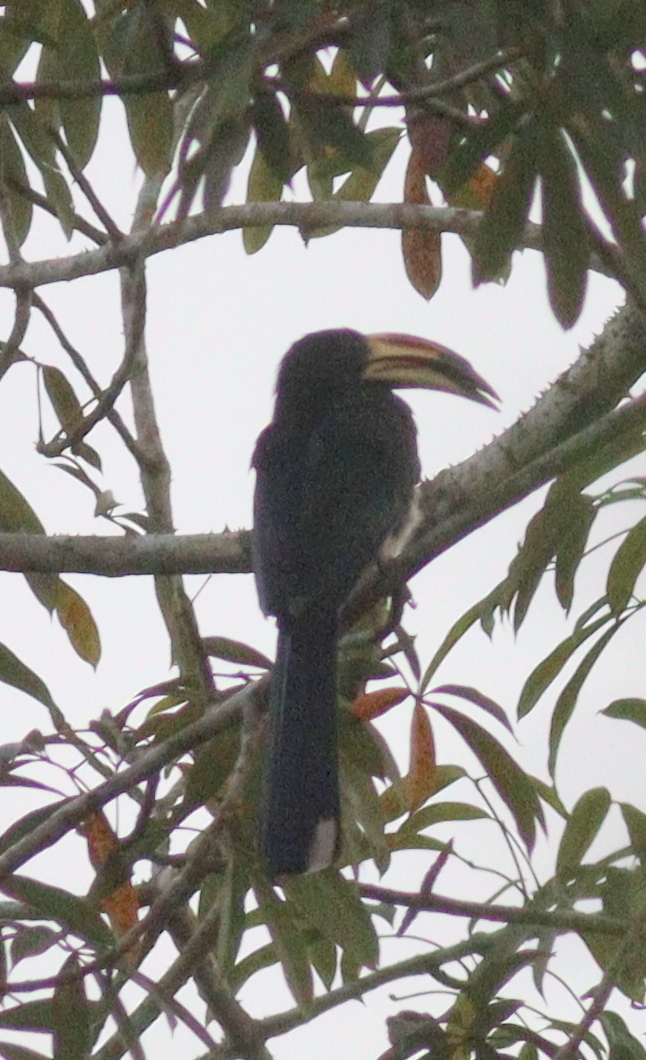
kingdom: Animalia
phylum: Chordata
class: Aves
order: Bucerotiformes
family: Bucerotidae
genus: Lophoceros
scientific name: Lophoceros fasciatus
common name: African pied hornbill
